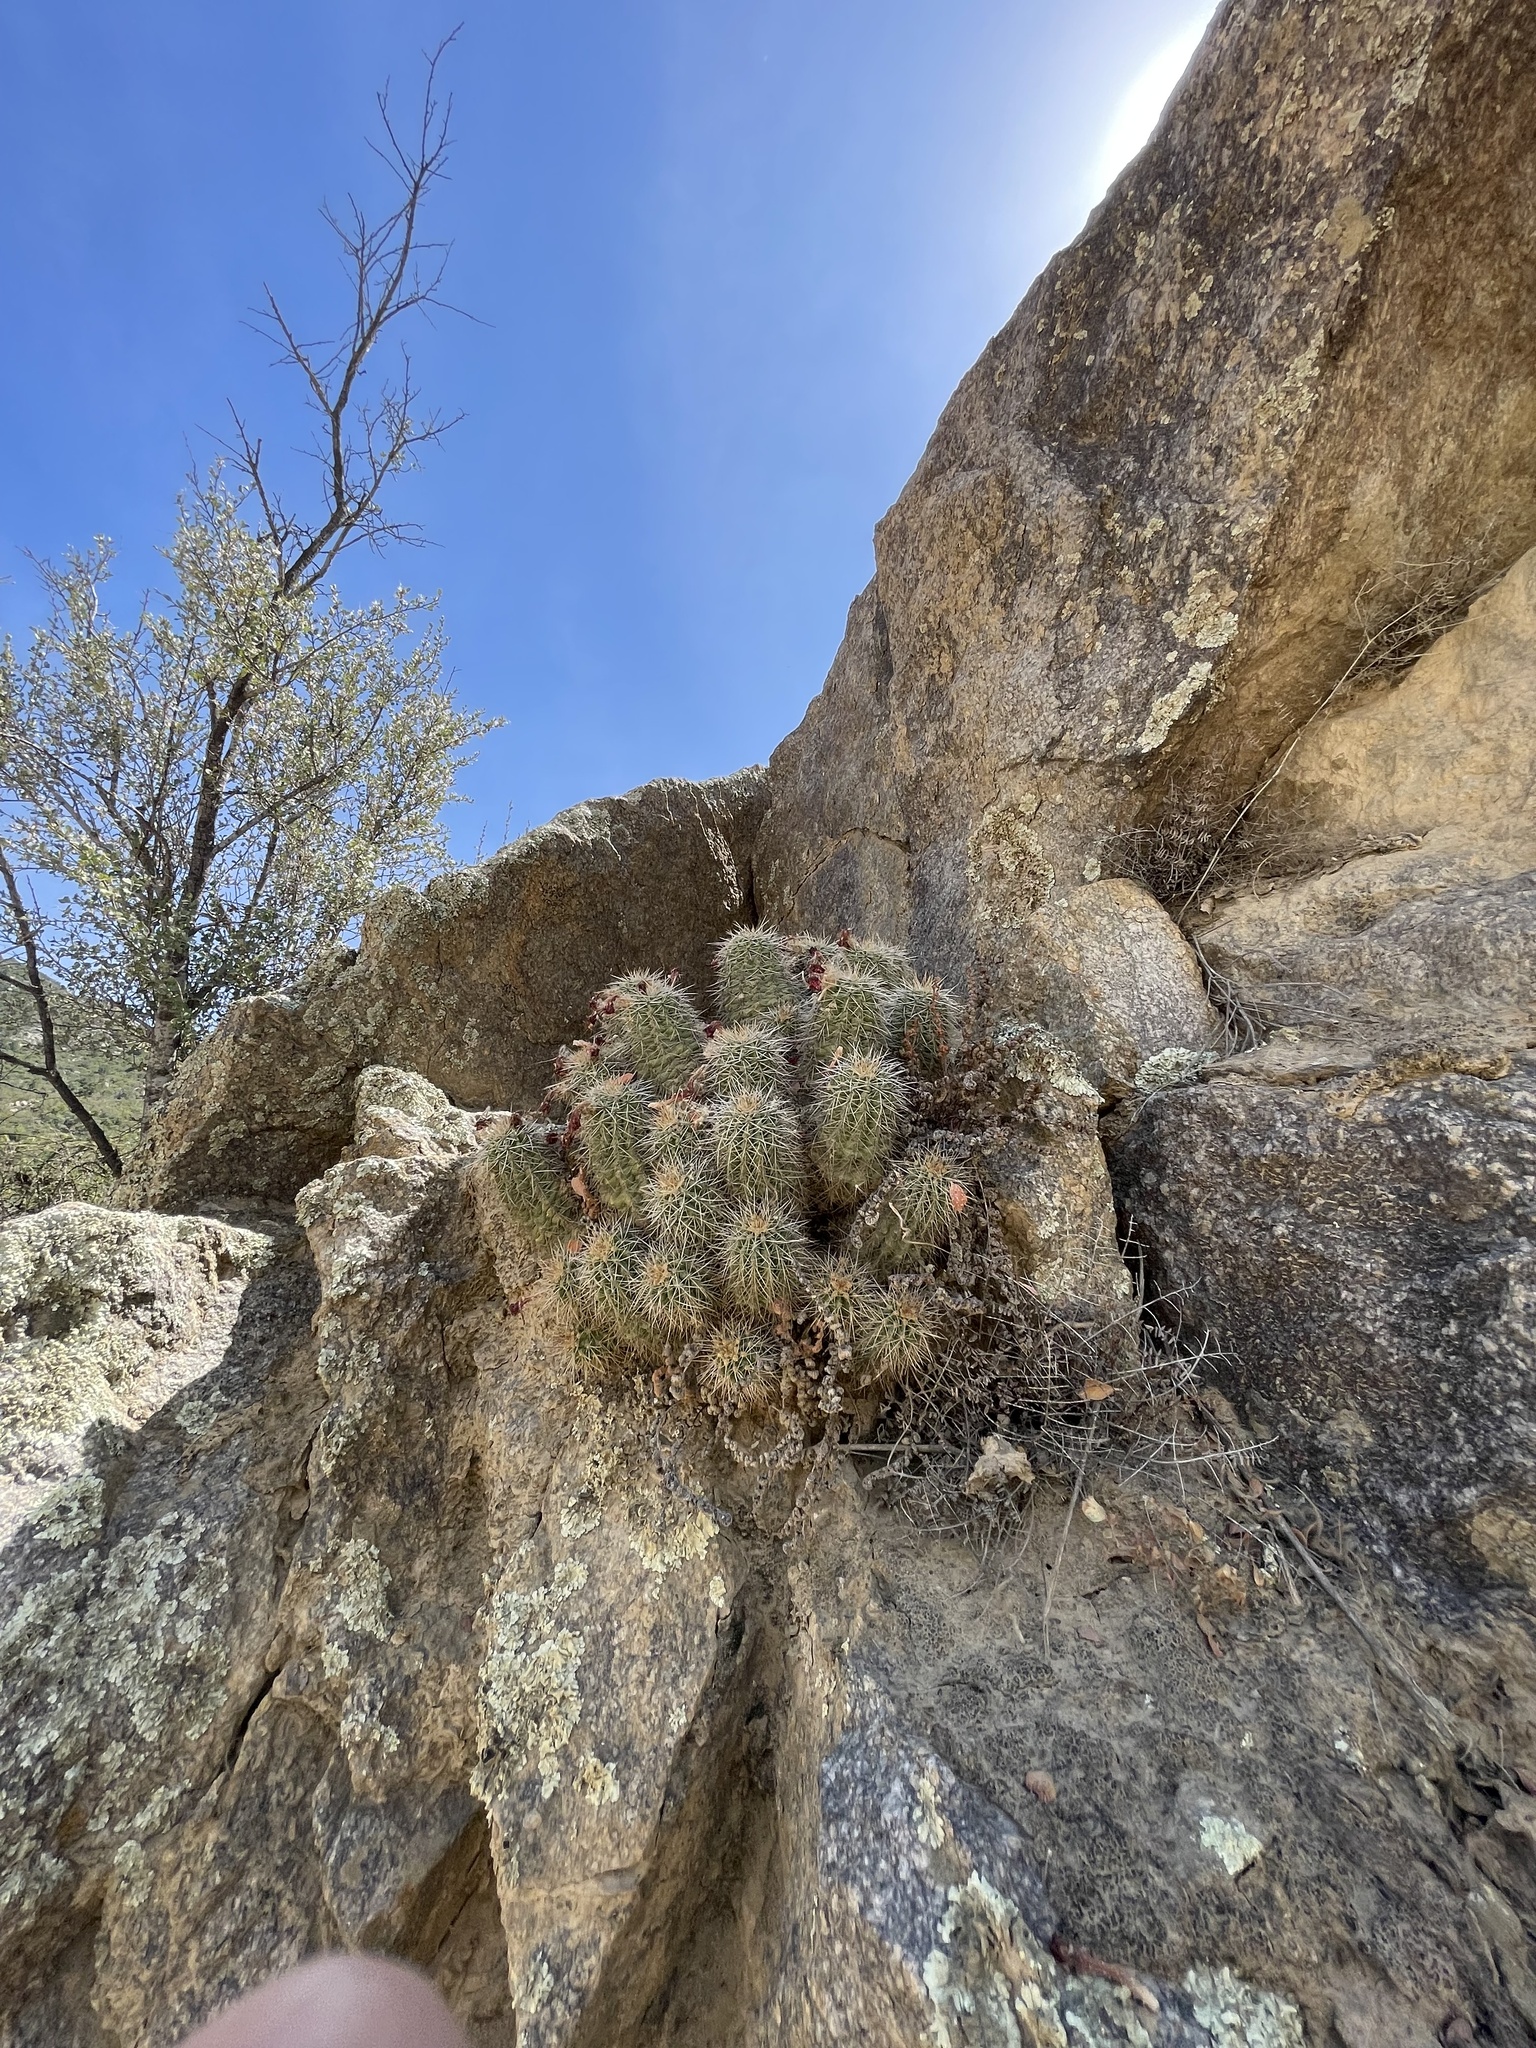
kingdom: Plantae
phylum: Tracheophyta
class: Magnoliopsida
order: Caryophyllales
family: Cactaceae
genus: Echinocereus
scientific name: Echinocereus yavapaiensis
